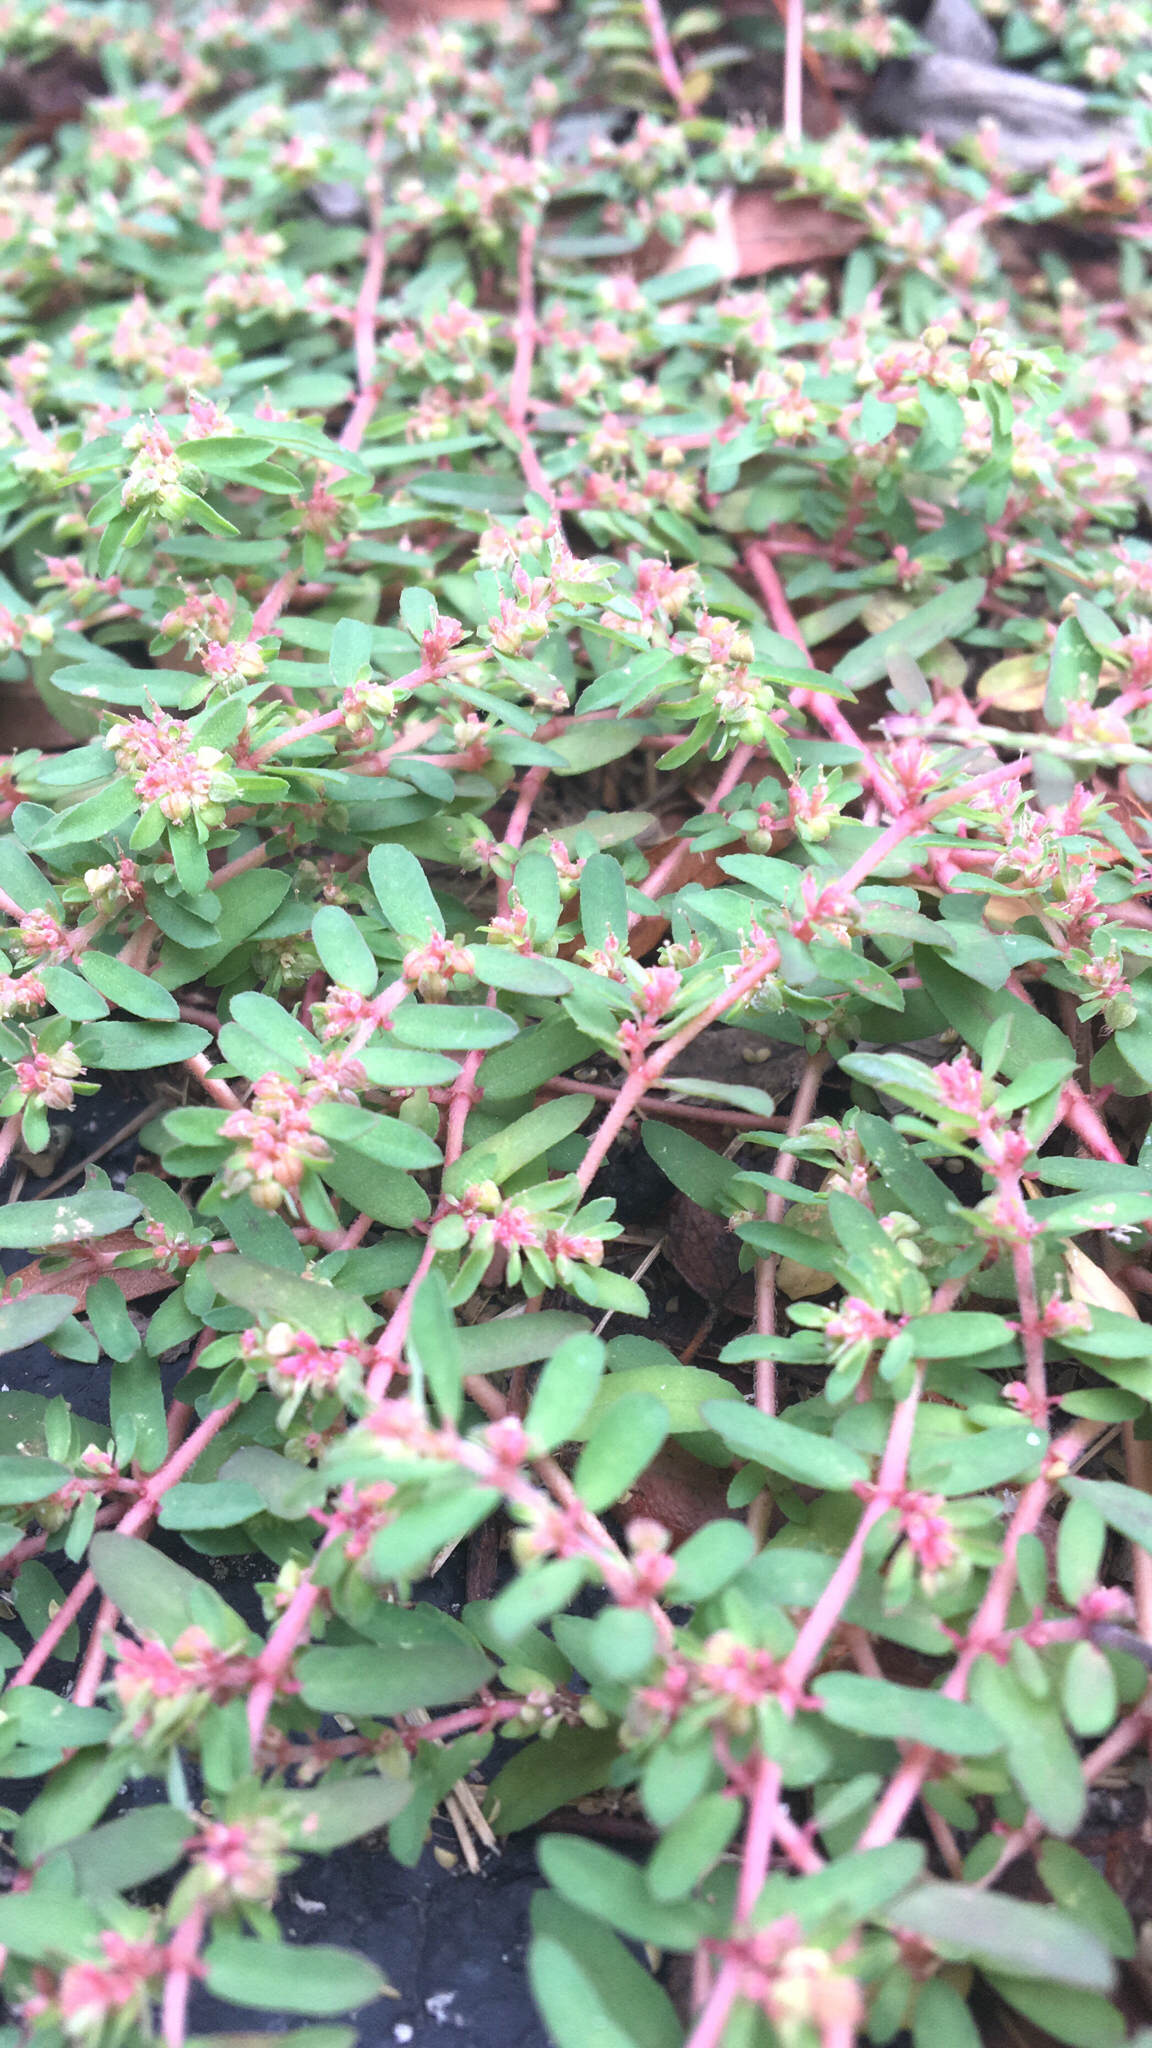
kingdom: Plantae
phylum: Tracheophyta
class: Magnoliopsida
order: Malpighiales
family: Euphorbiaceae
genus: Euphorbia
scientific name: Euphorbia maculata
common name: Spotted spurge
